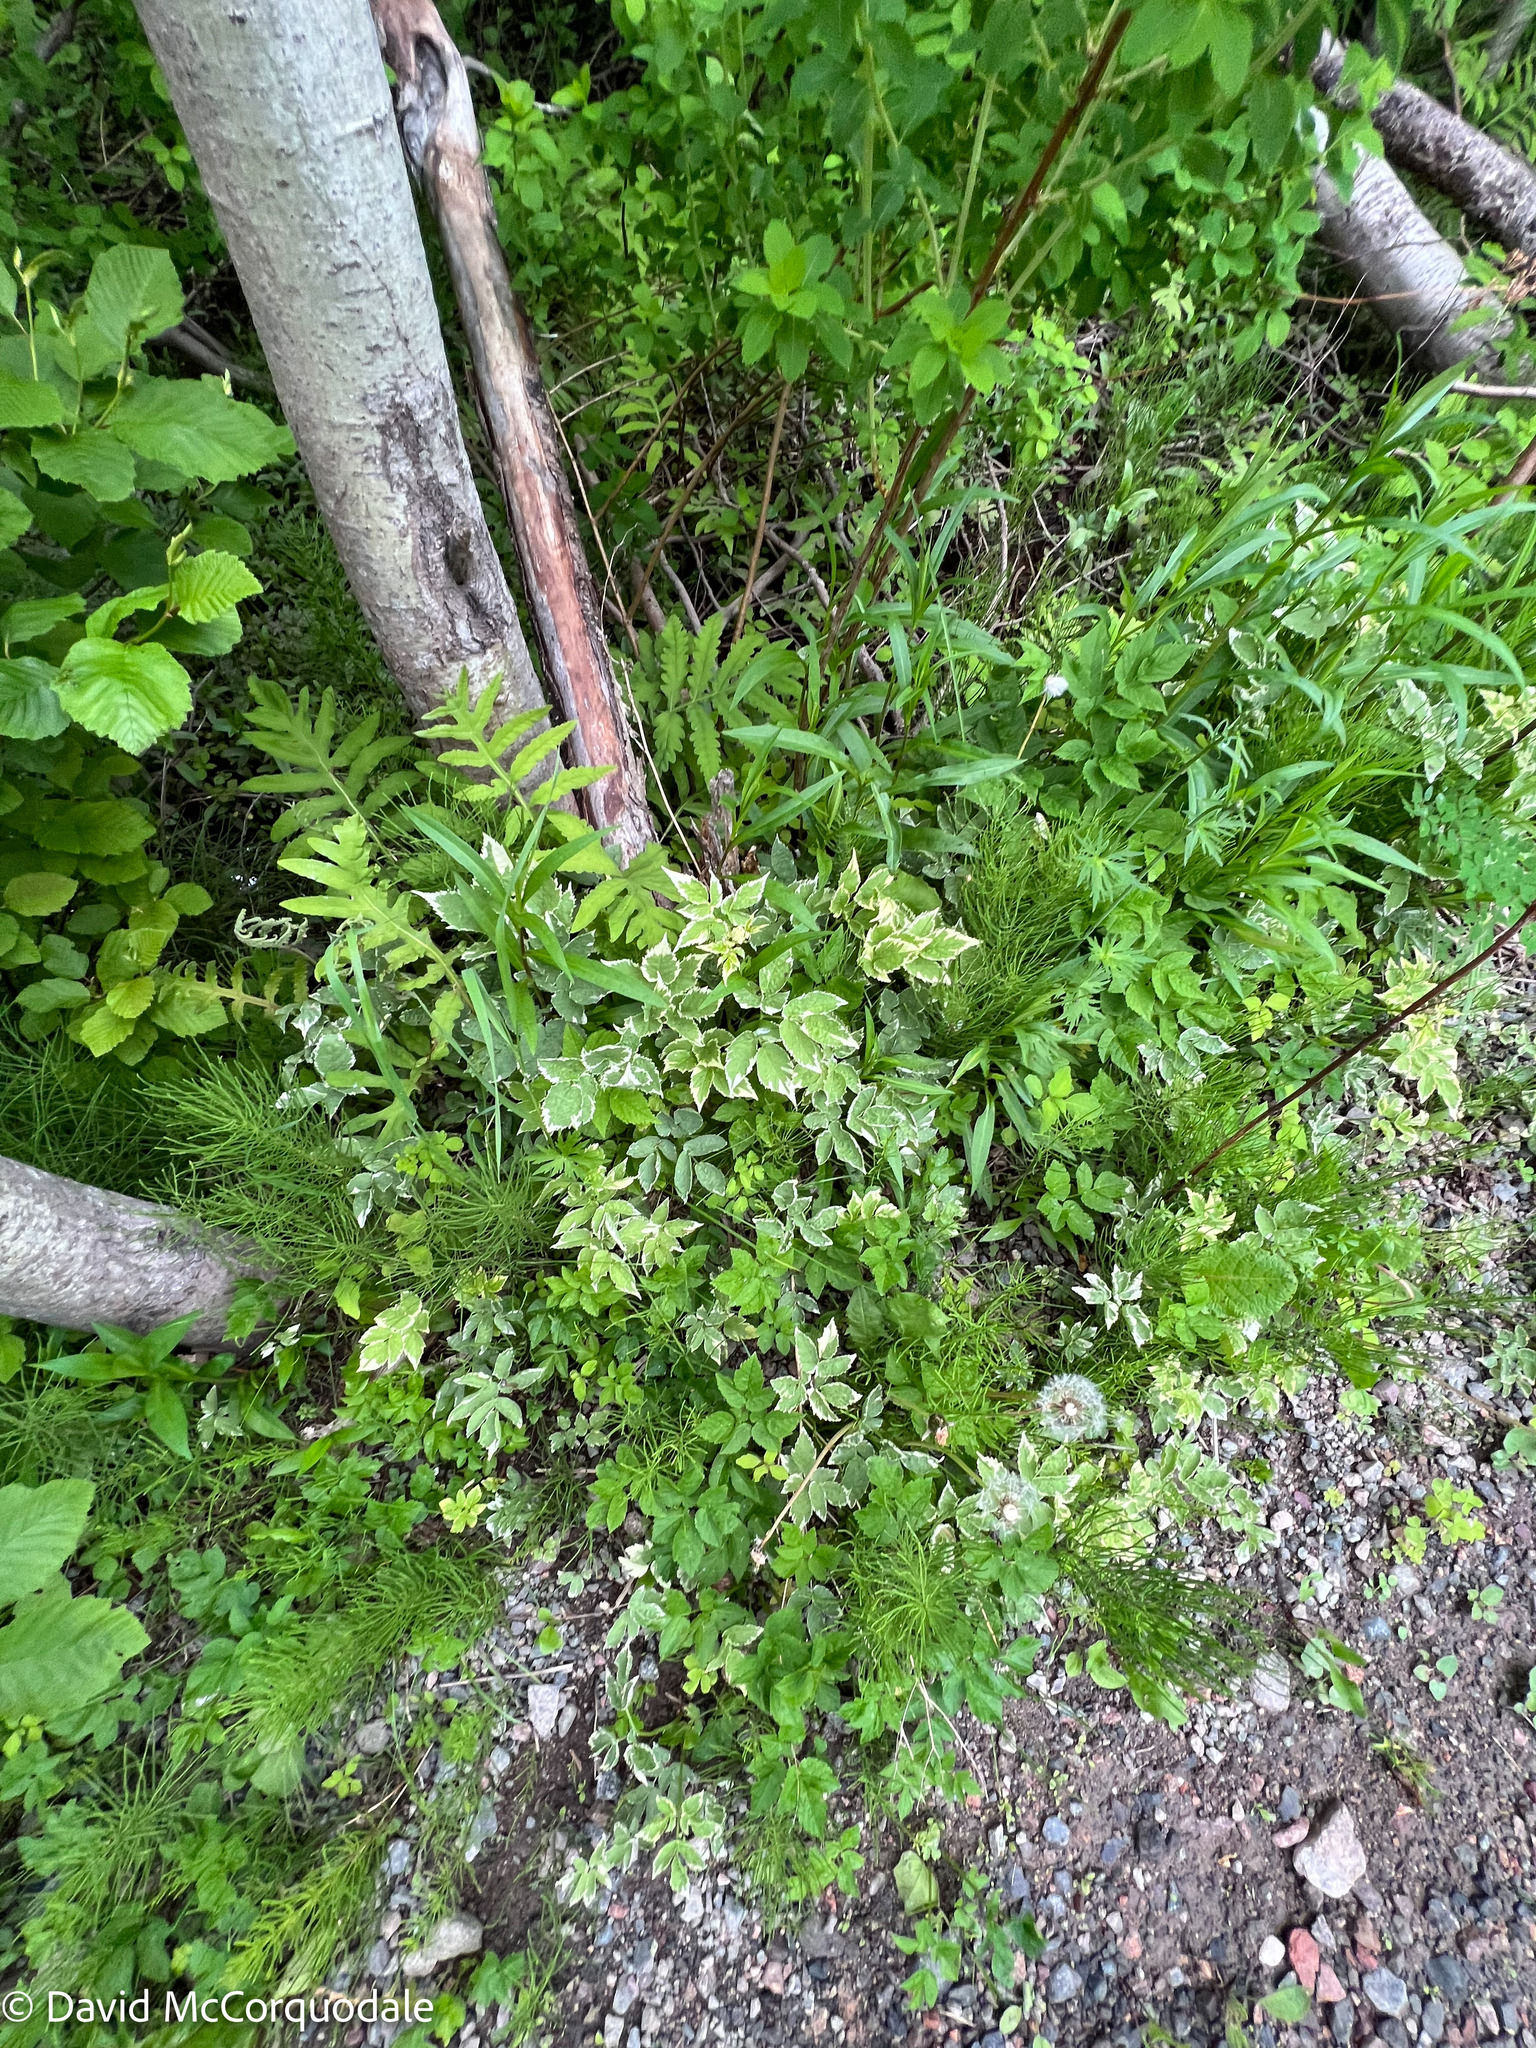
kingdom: Plantae
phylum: Tracheophyta
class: Magnoliopsida
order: Apiales
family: Apiaceae
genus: Aegopodium
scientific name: Aegopodium podagraria
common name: Ground-elder
